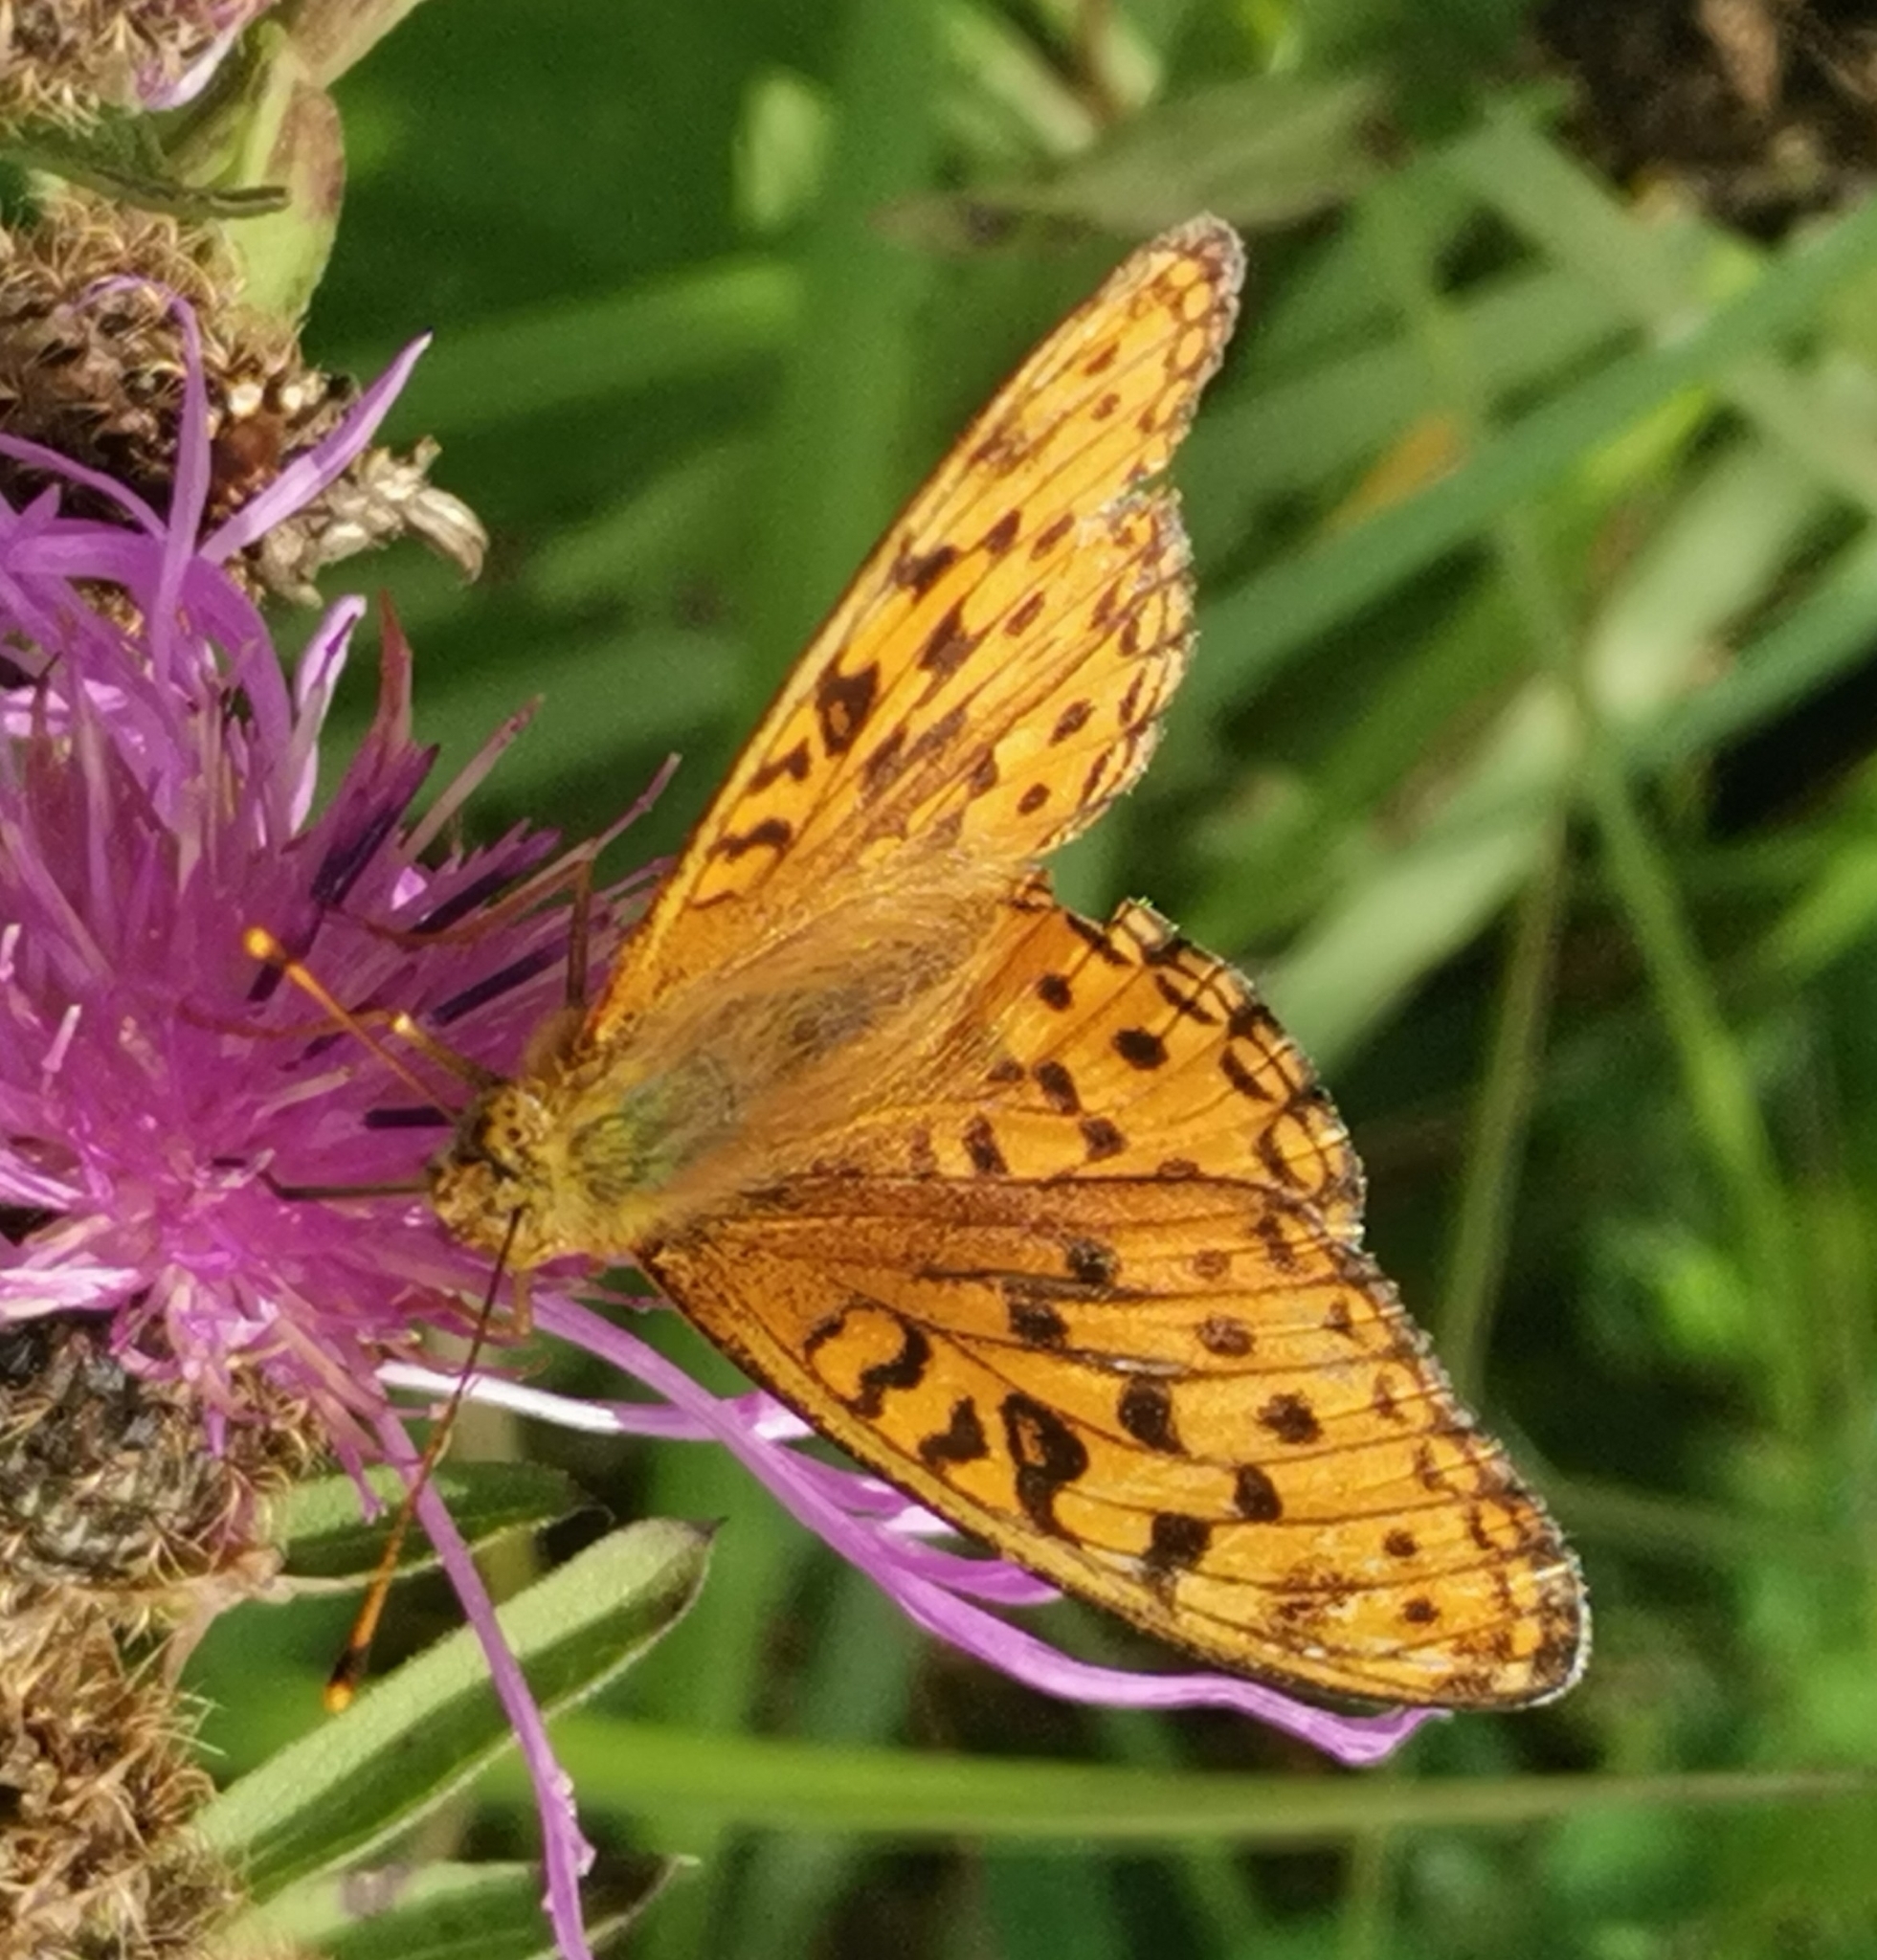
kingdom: Animalia
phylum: Arthropoda
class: Insecta
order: Lepidoptera
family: Nymphalidae
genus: Fabriciana
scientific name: Fabriciana adippe
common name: High brown fritillary
